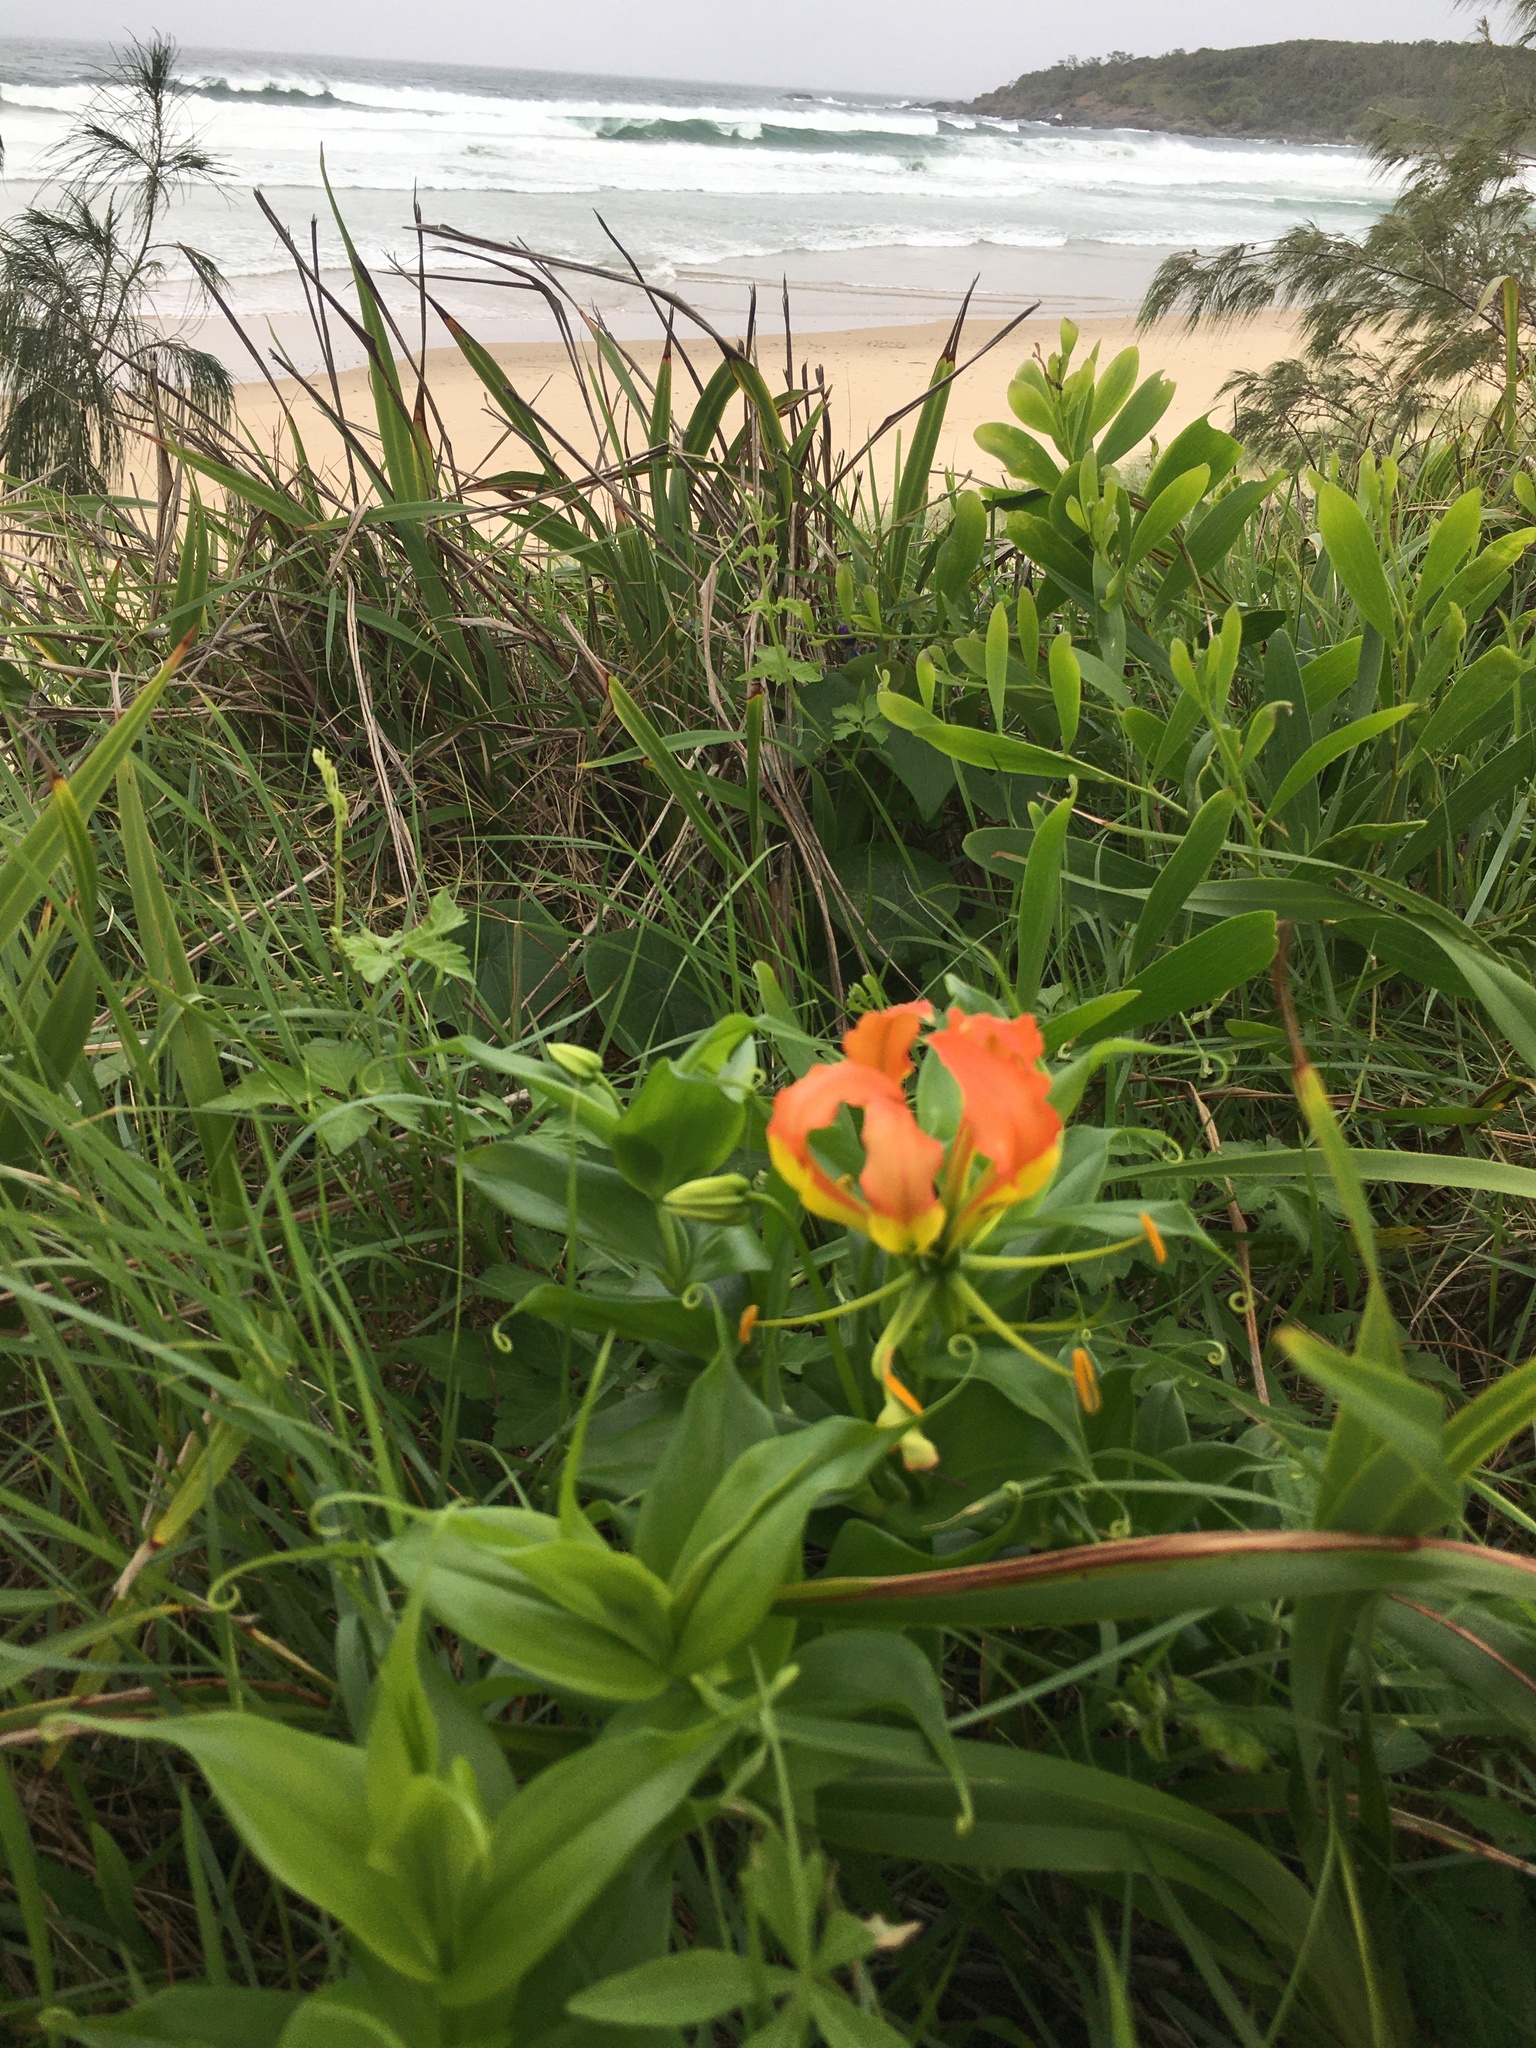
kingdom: Plantae
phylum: Tracheophyta
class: Liliopsida
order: Liliales
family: Colchicaceae
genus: Gloriosa
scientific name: Gloriosa superba
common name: Flame lily
